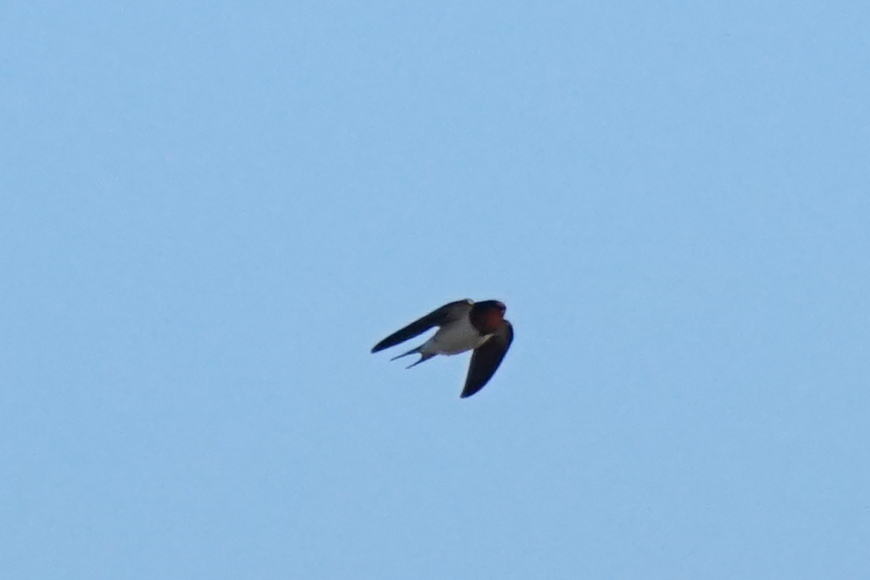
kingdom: Animalia
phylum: Chordata
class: Aves
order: Passeriformes
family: Hirundinidae
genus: Hirundo
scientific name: Hirundo rustica
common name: Barn swallow
